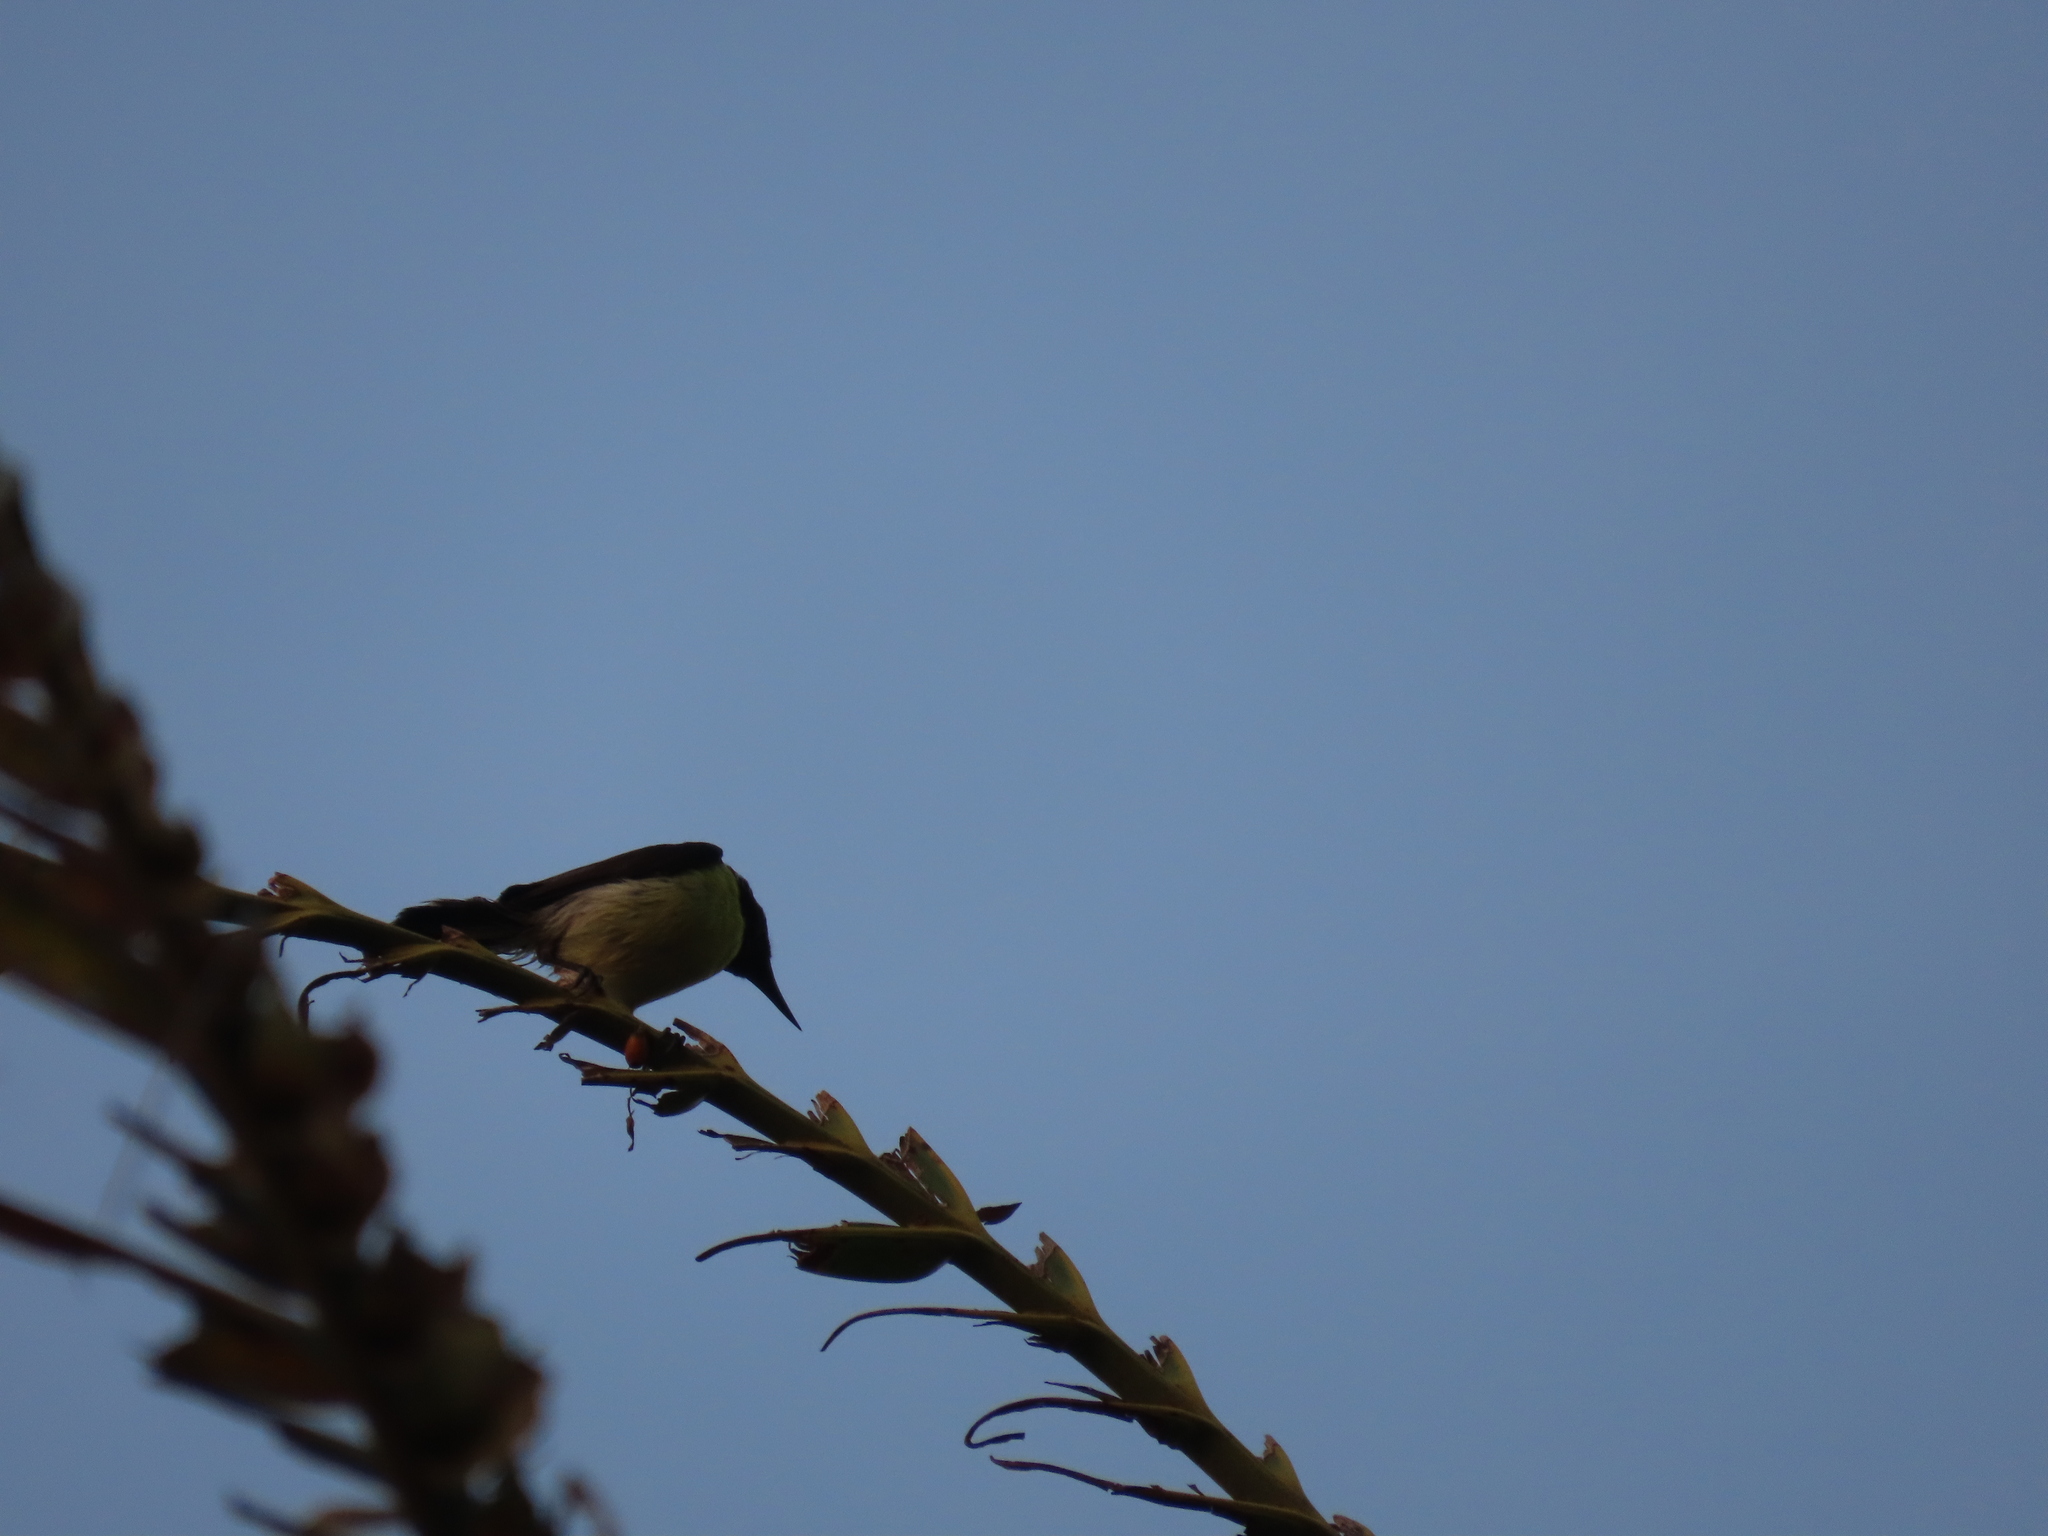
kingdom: Animalia
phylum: Chordata
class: Aves
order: Passeriformes
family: Nectariniidae
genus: Leptocoma
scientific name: Leptocoma zeylonica
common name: Purple-rumped sunbird
